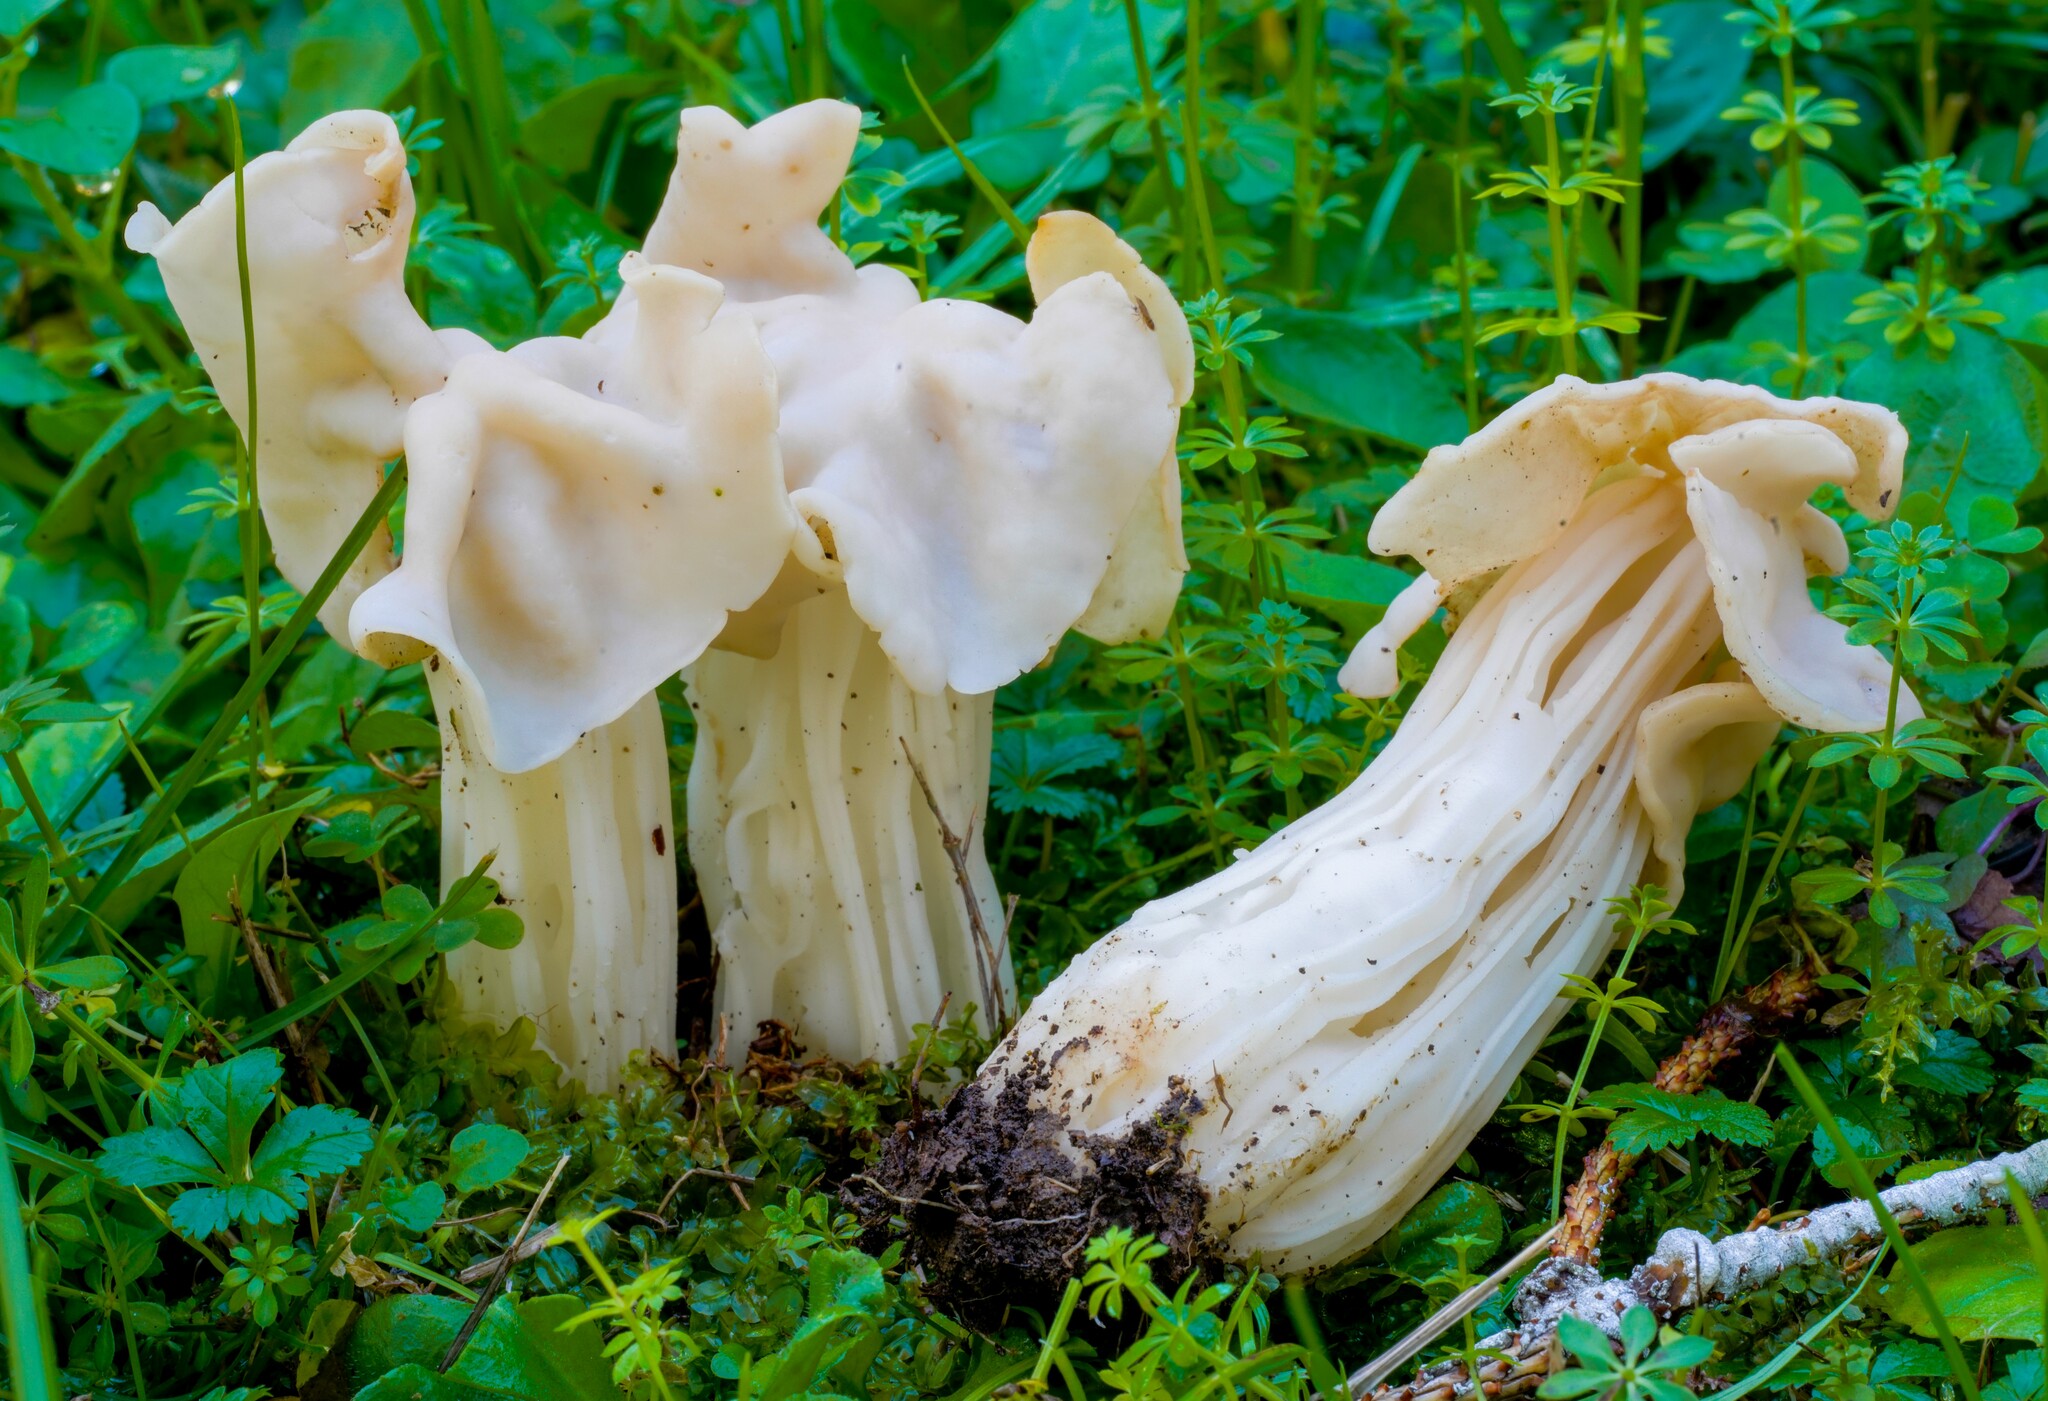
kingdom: Fungi
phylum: Ascomycota
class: Pezizomycetes
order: Pezizales
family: Helvellaceae
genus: Helvella
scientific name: Helvella crispa
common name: White saddle
